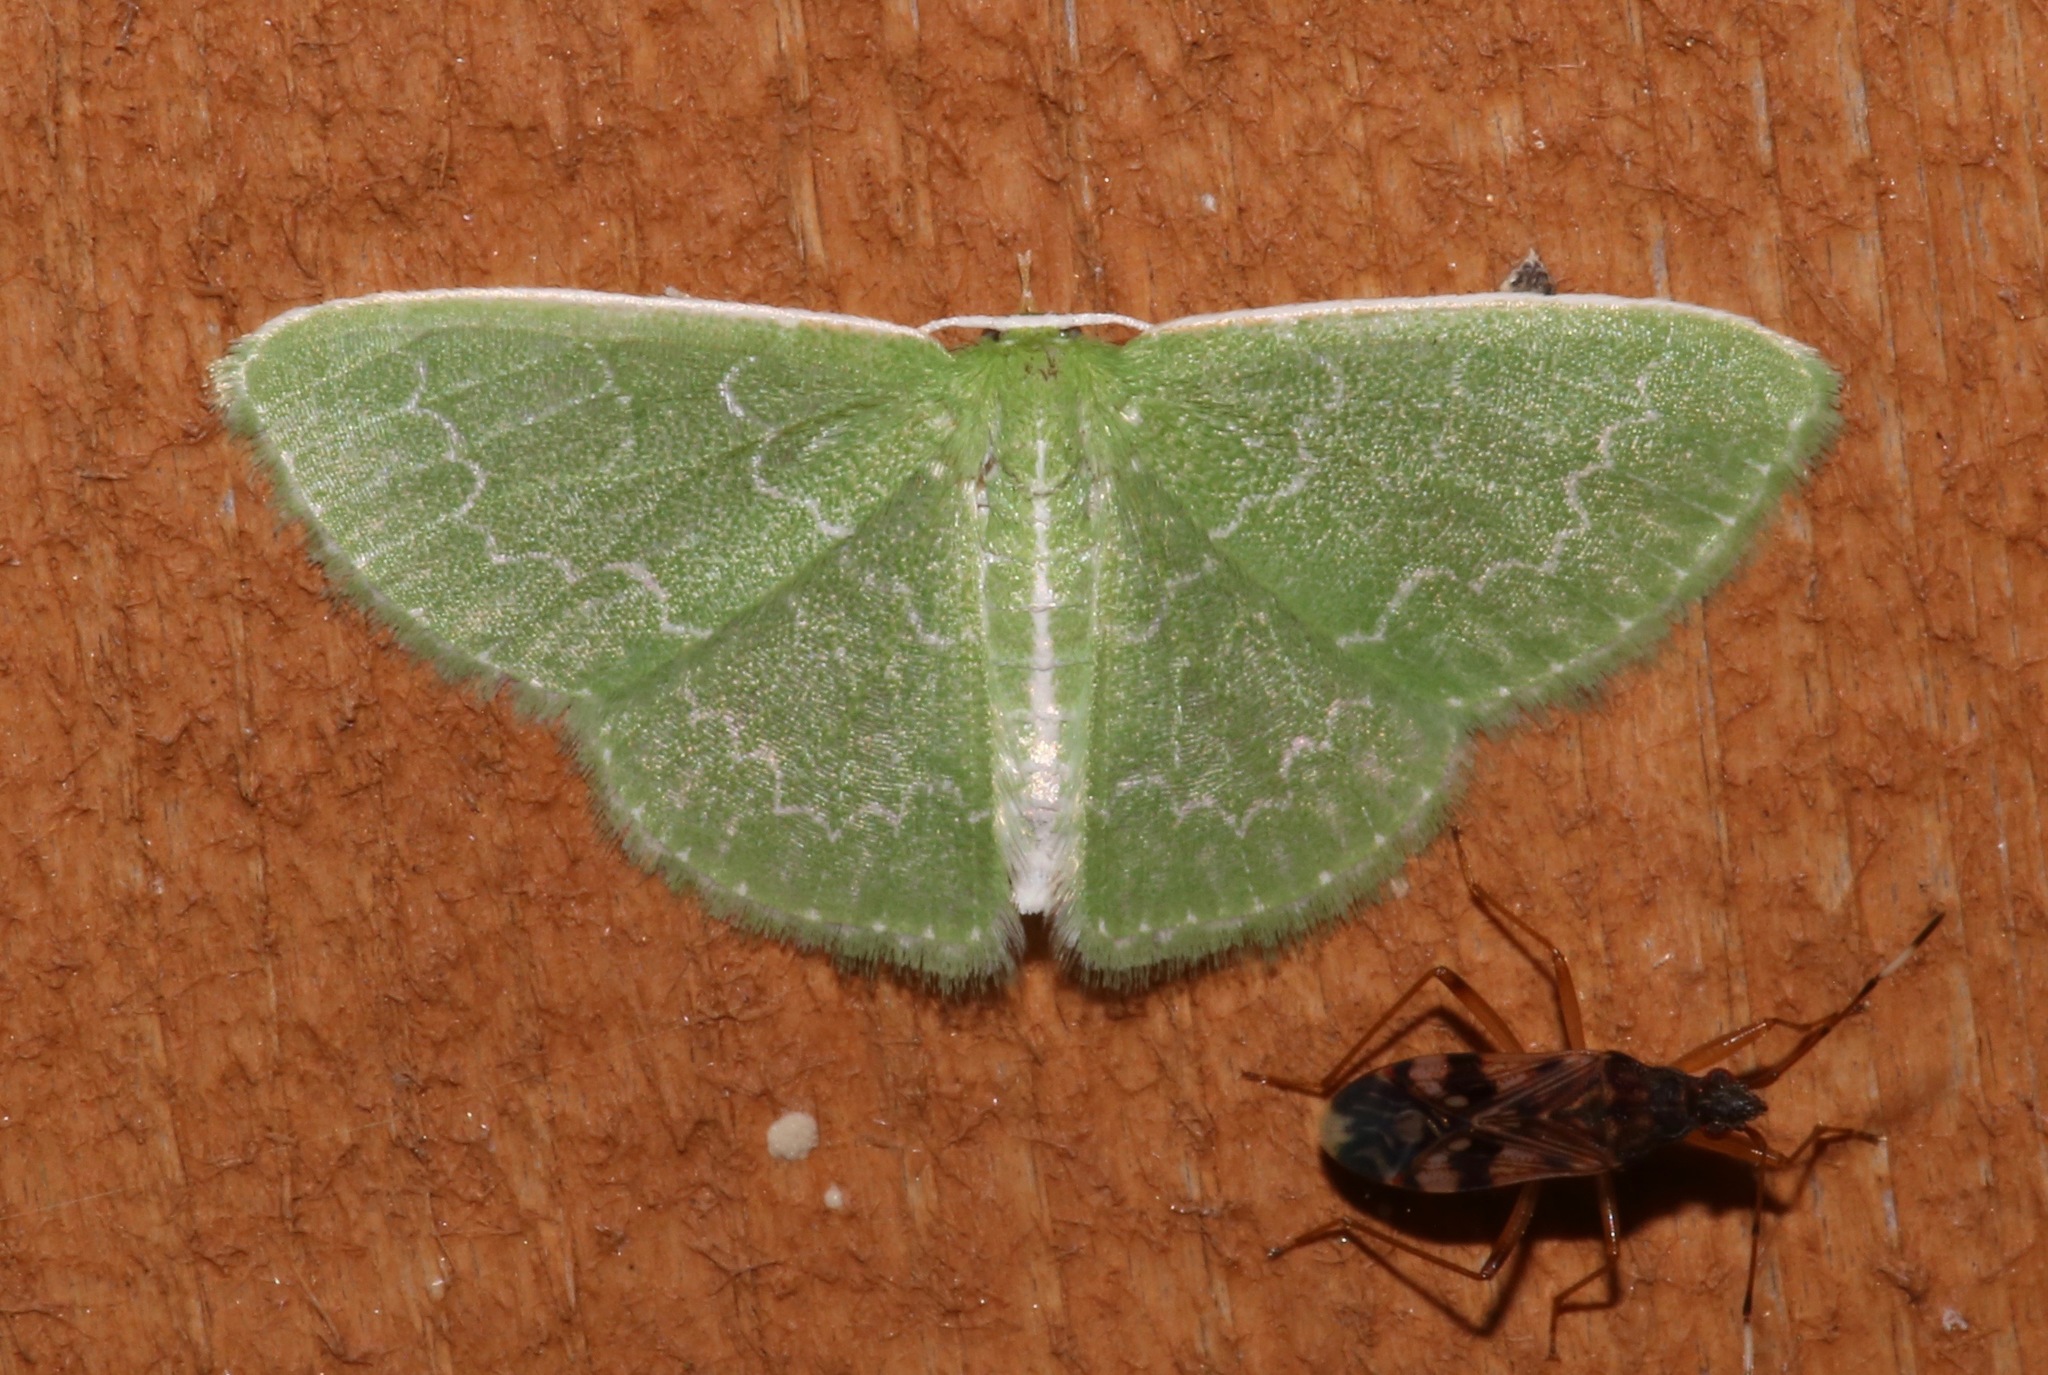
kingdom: Animalia
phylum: Arthropoda
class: Insecta
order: Lepidoptera
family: Geometridae
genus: Synchlora
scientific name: Synchlora frondaria
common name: Southern emerald
